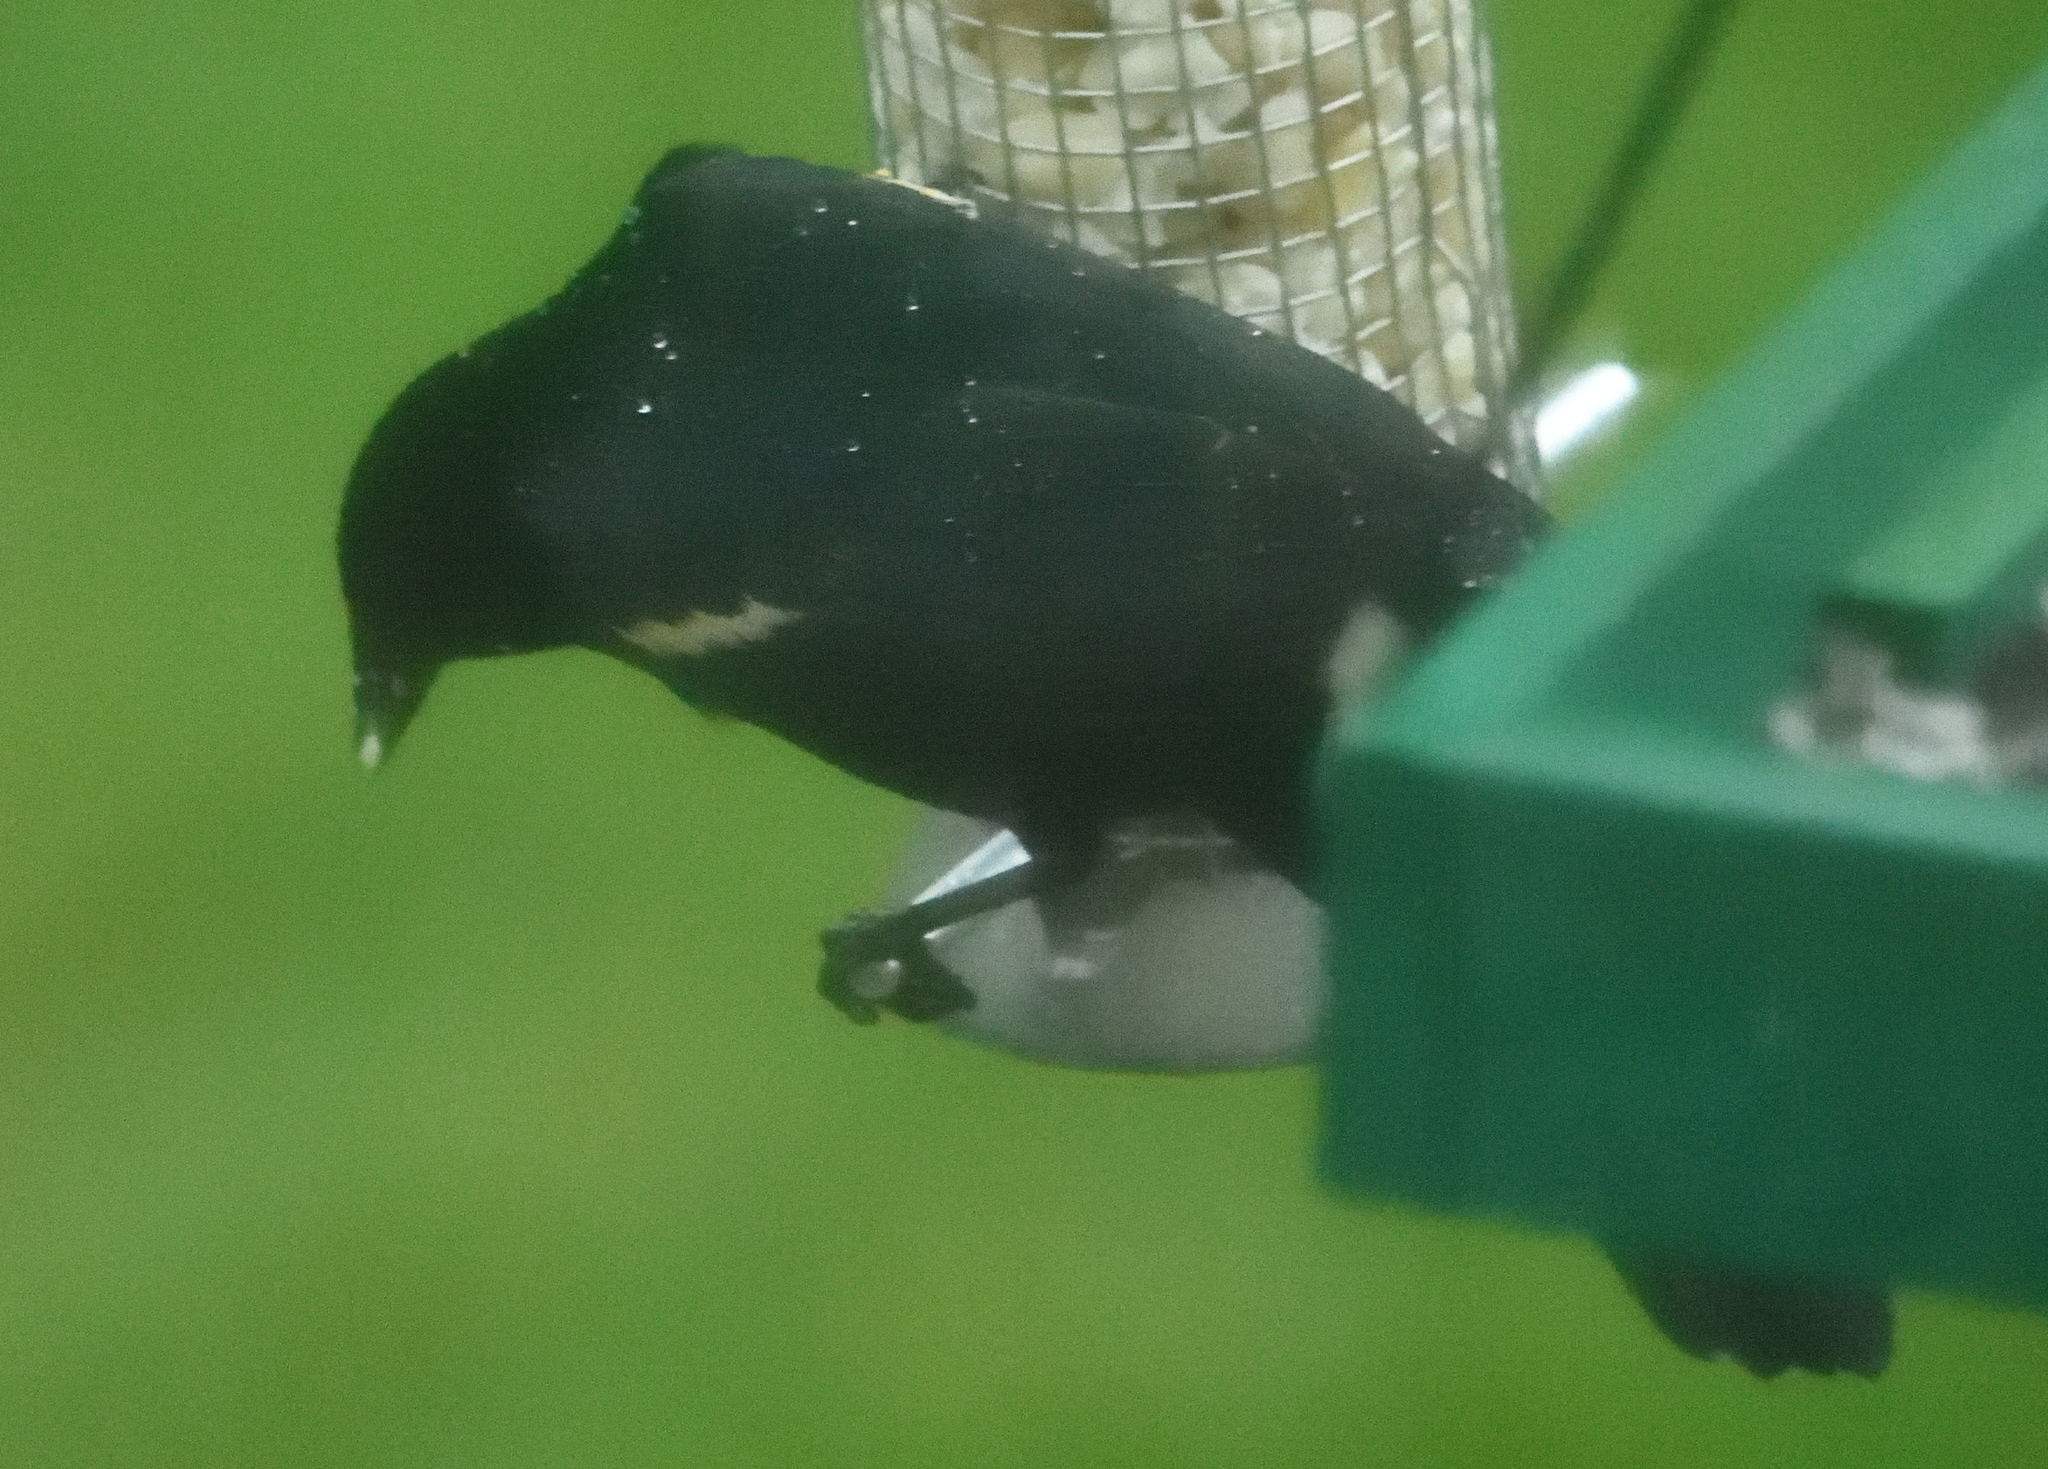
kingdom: Animalia
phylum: Chordata
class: Aves
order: Passeriformes
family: Icteridae
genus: Agelaius
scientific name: Agelaius phoeniceus
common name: Red-winged blackbird
